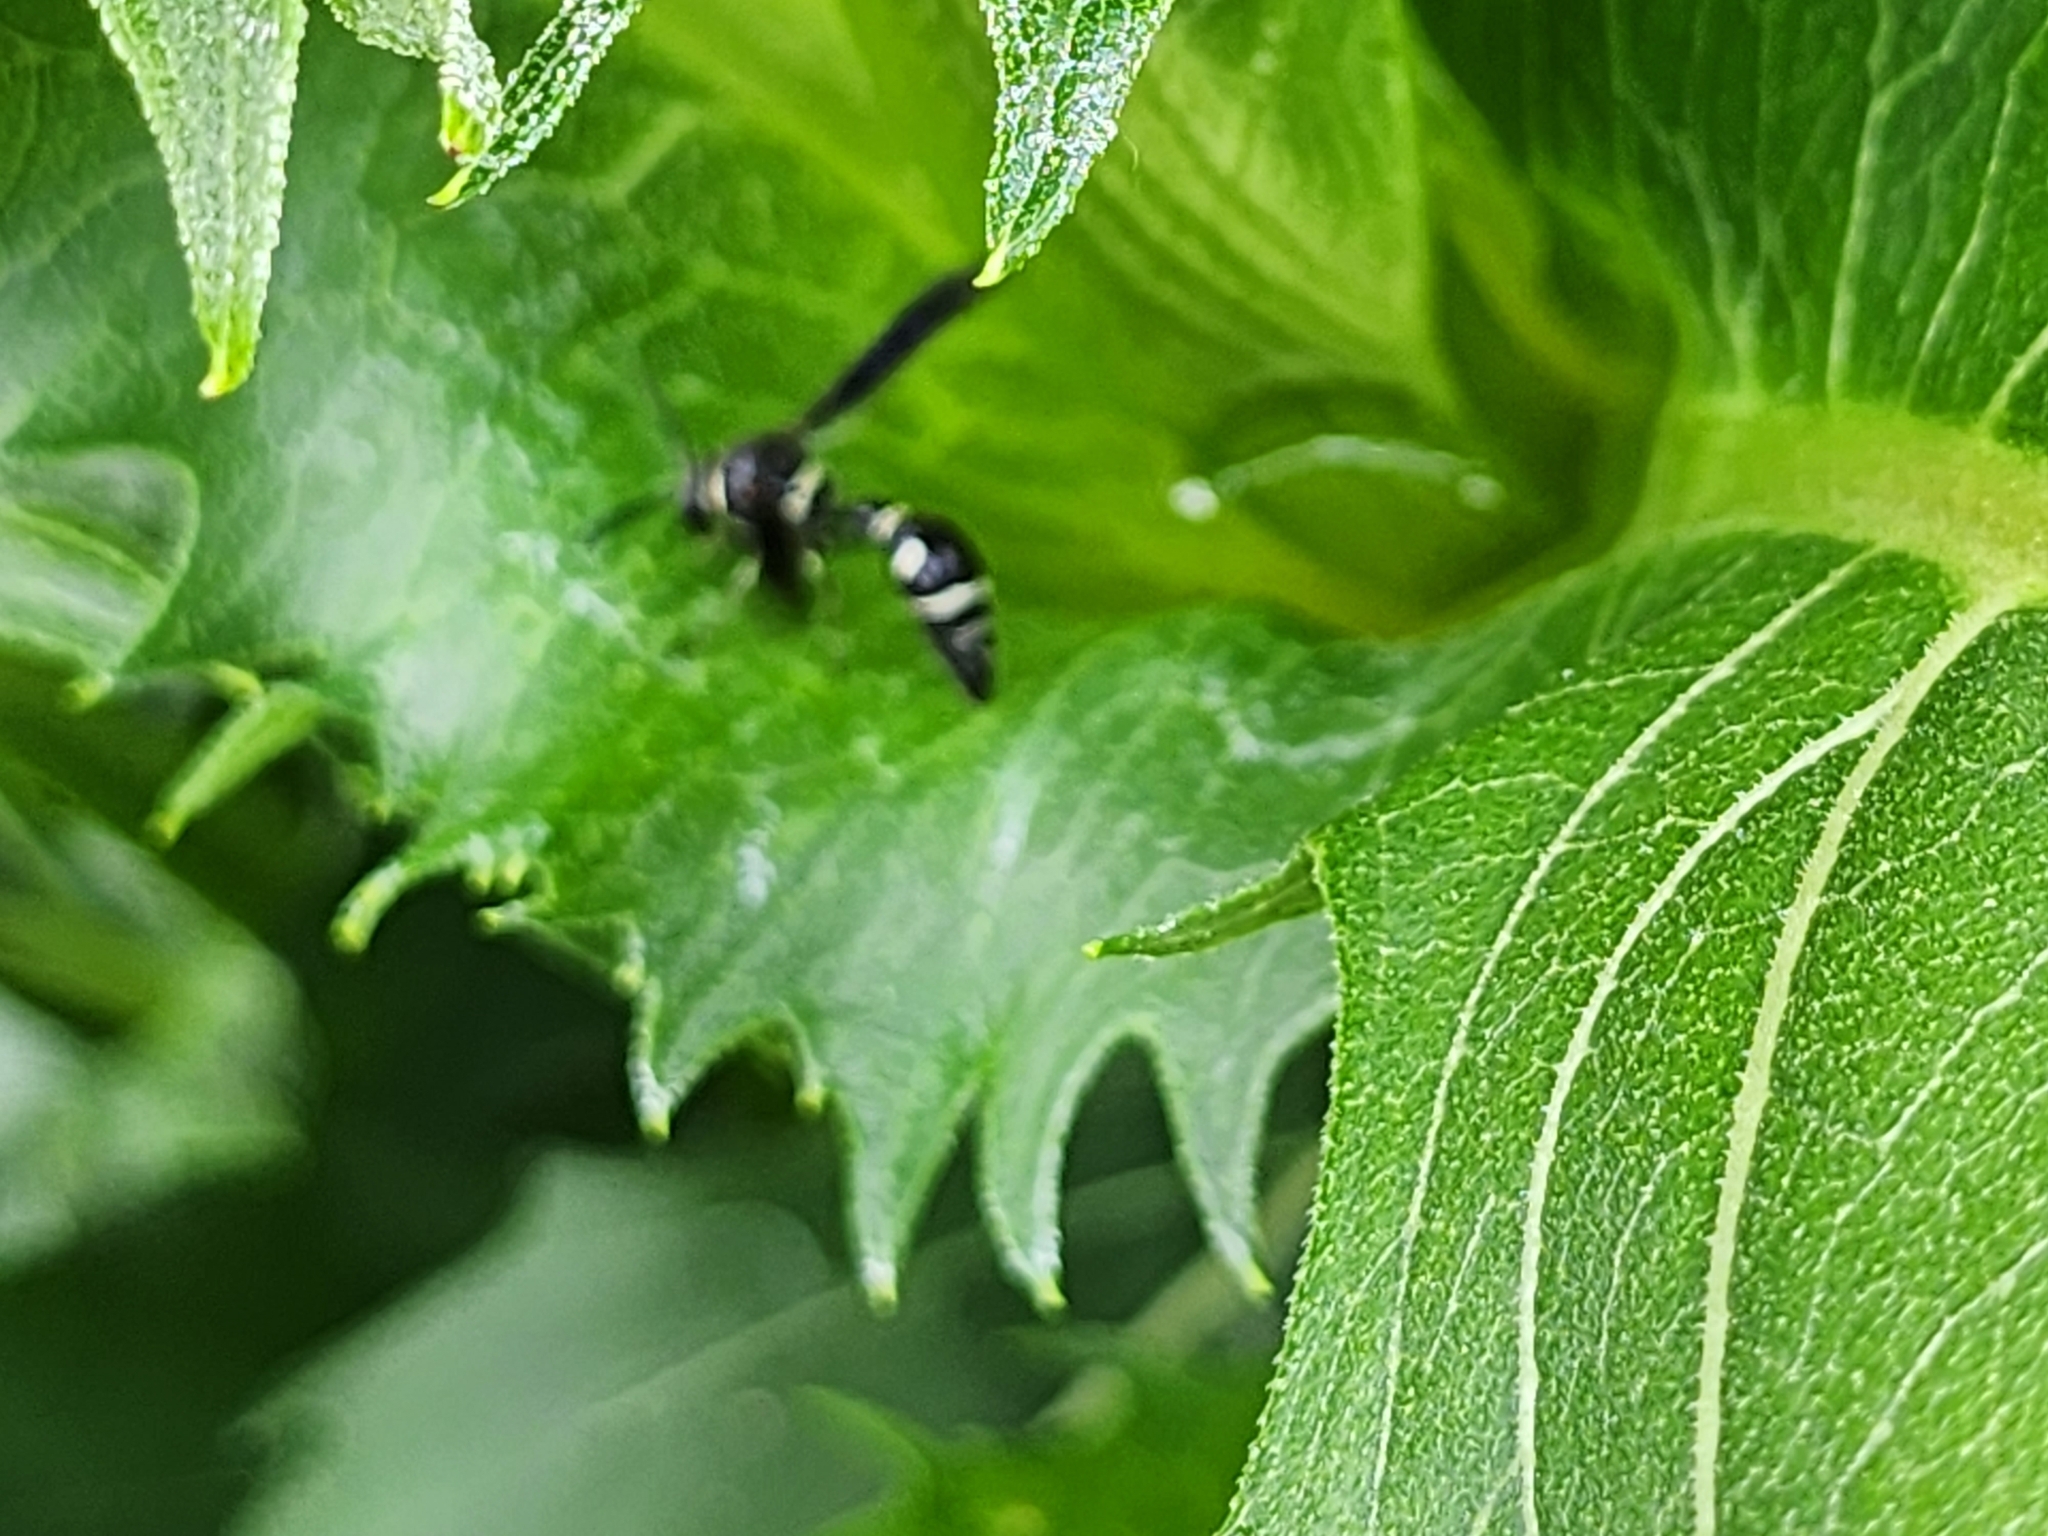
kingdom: Animalia
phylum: Arthropoda
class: Insecta
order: Hymenoptera
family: Vespidae
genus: Eumenes
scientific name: Eumenes fraternus
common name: Fraternal potter wasp
